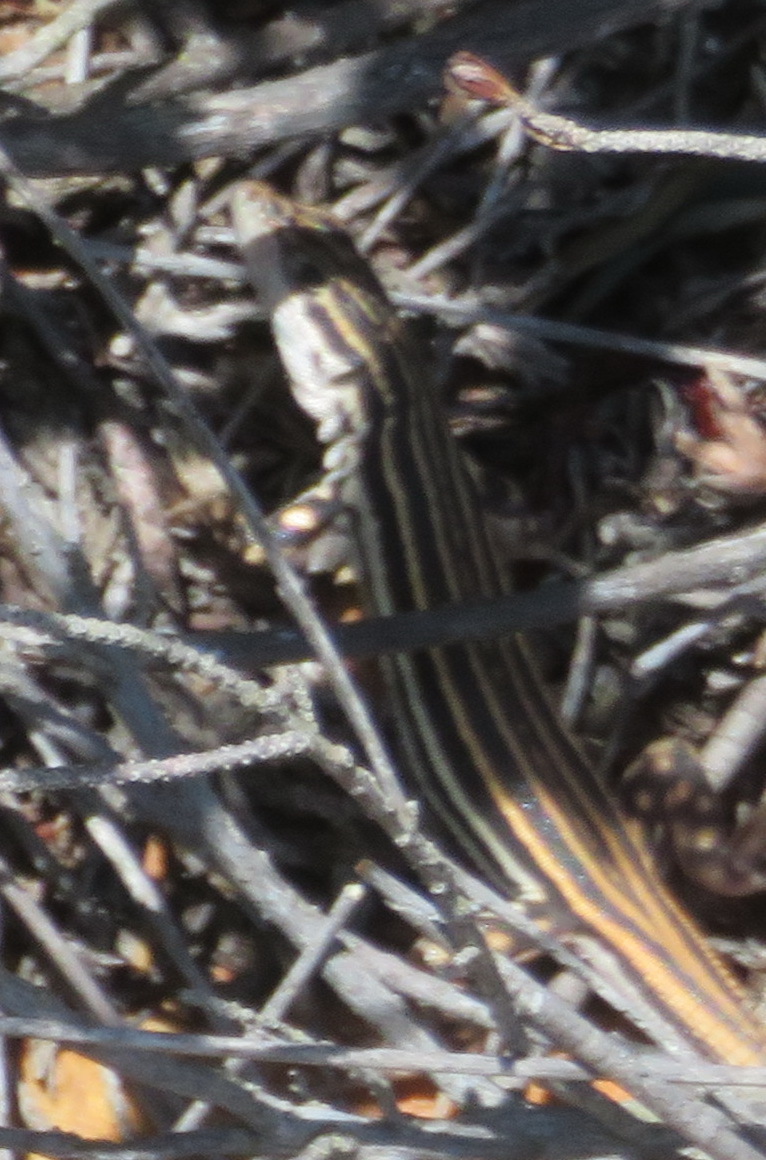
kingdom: Animalia
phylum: Chordata
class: Squamata
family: Lacertidae
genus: Pedioplanis
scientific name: Pedioplanis burchelli
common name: Burchell's sand lizard
